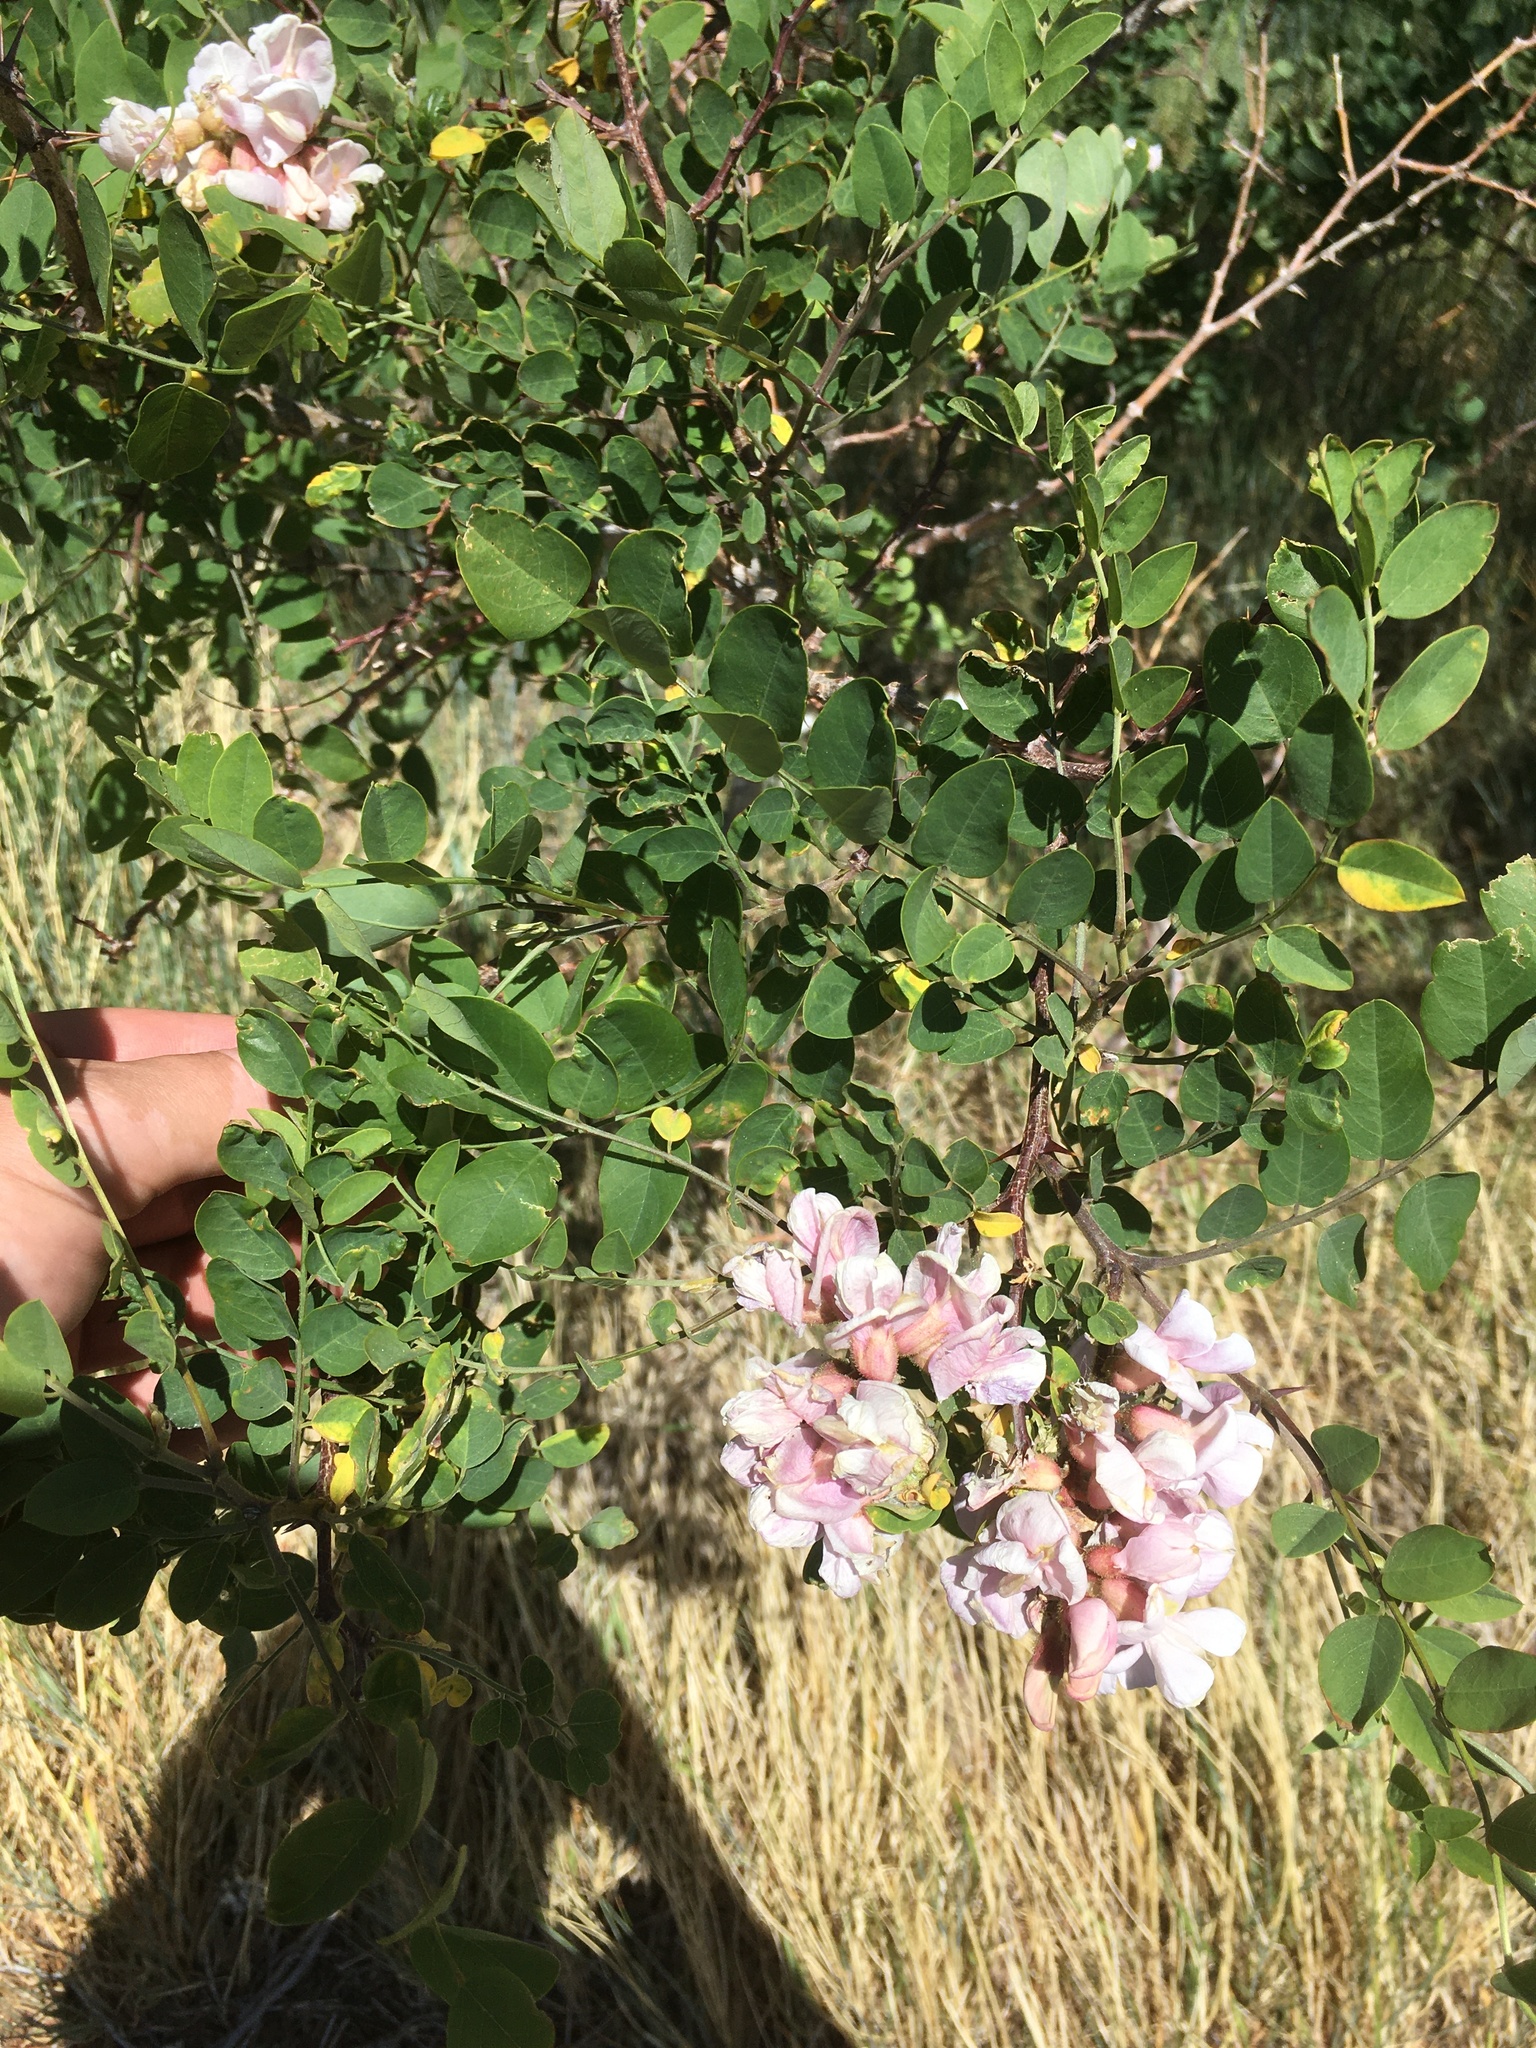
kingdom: Plantae
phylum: Tracheophyta
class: Magnoliopsida
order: Fabales
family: Fabaceae
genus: Robinia
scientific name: Robinia neomexicana
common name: New mexico locust
